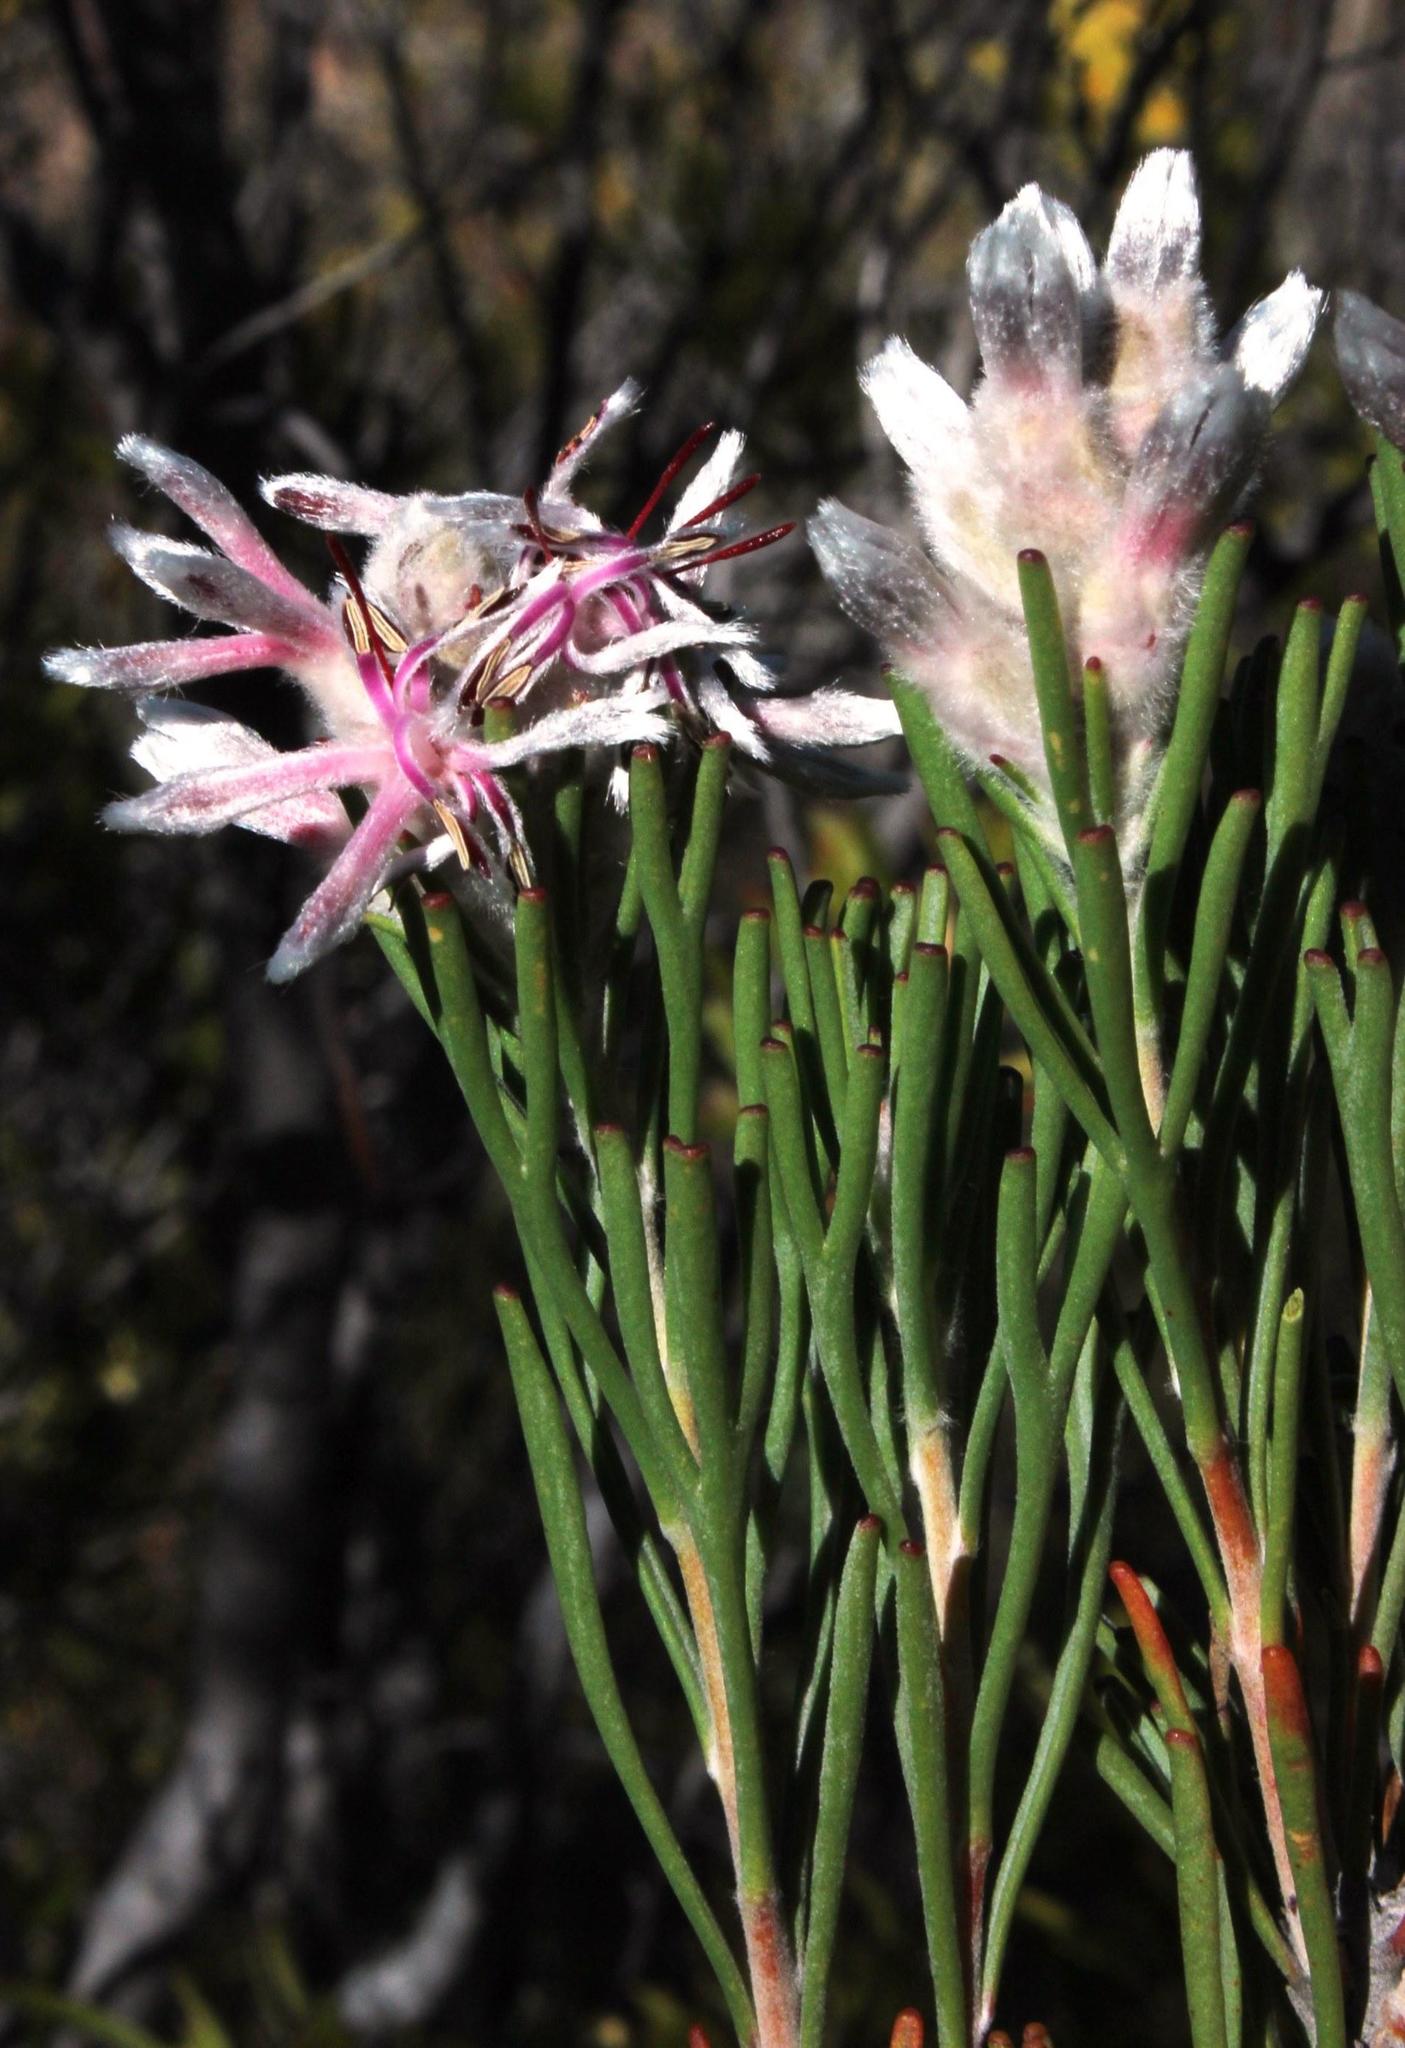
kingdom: Plantae
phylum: Tracheophyta
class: Magnoliopsida
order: Proteales
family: Proteaceae
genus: Paranomus
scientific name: Paranomus dregei
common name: Scented sceptre
